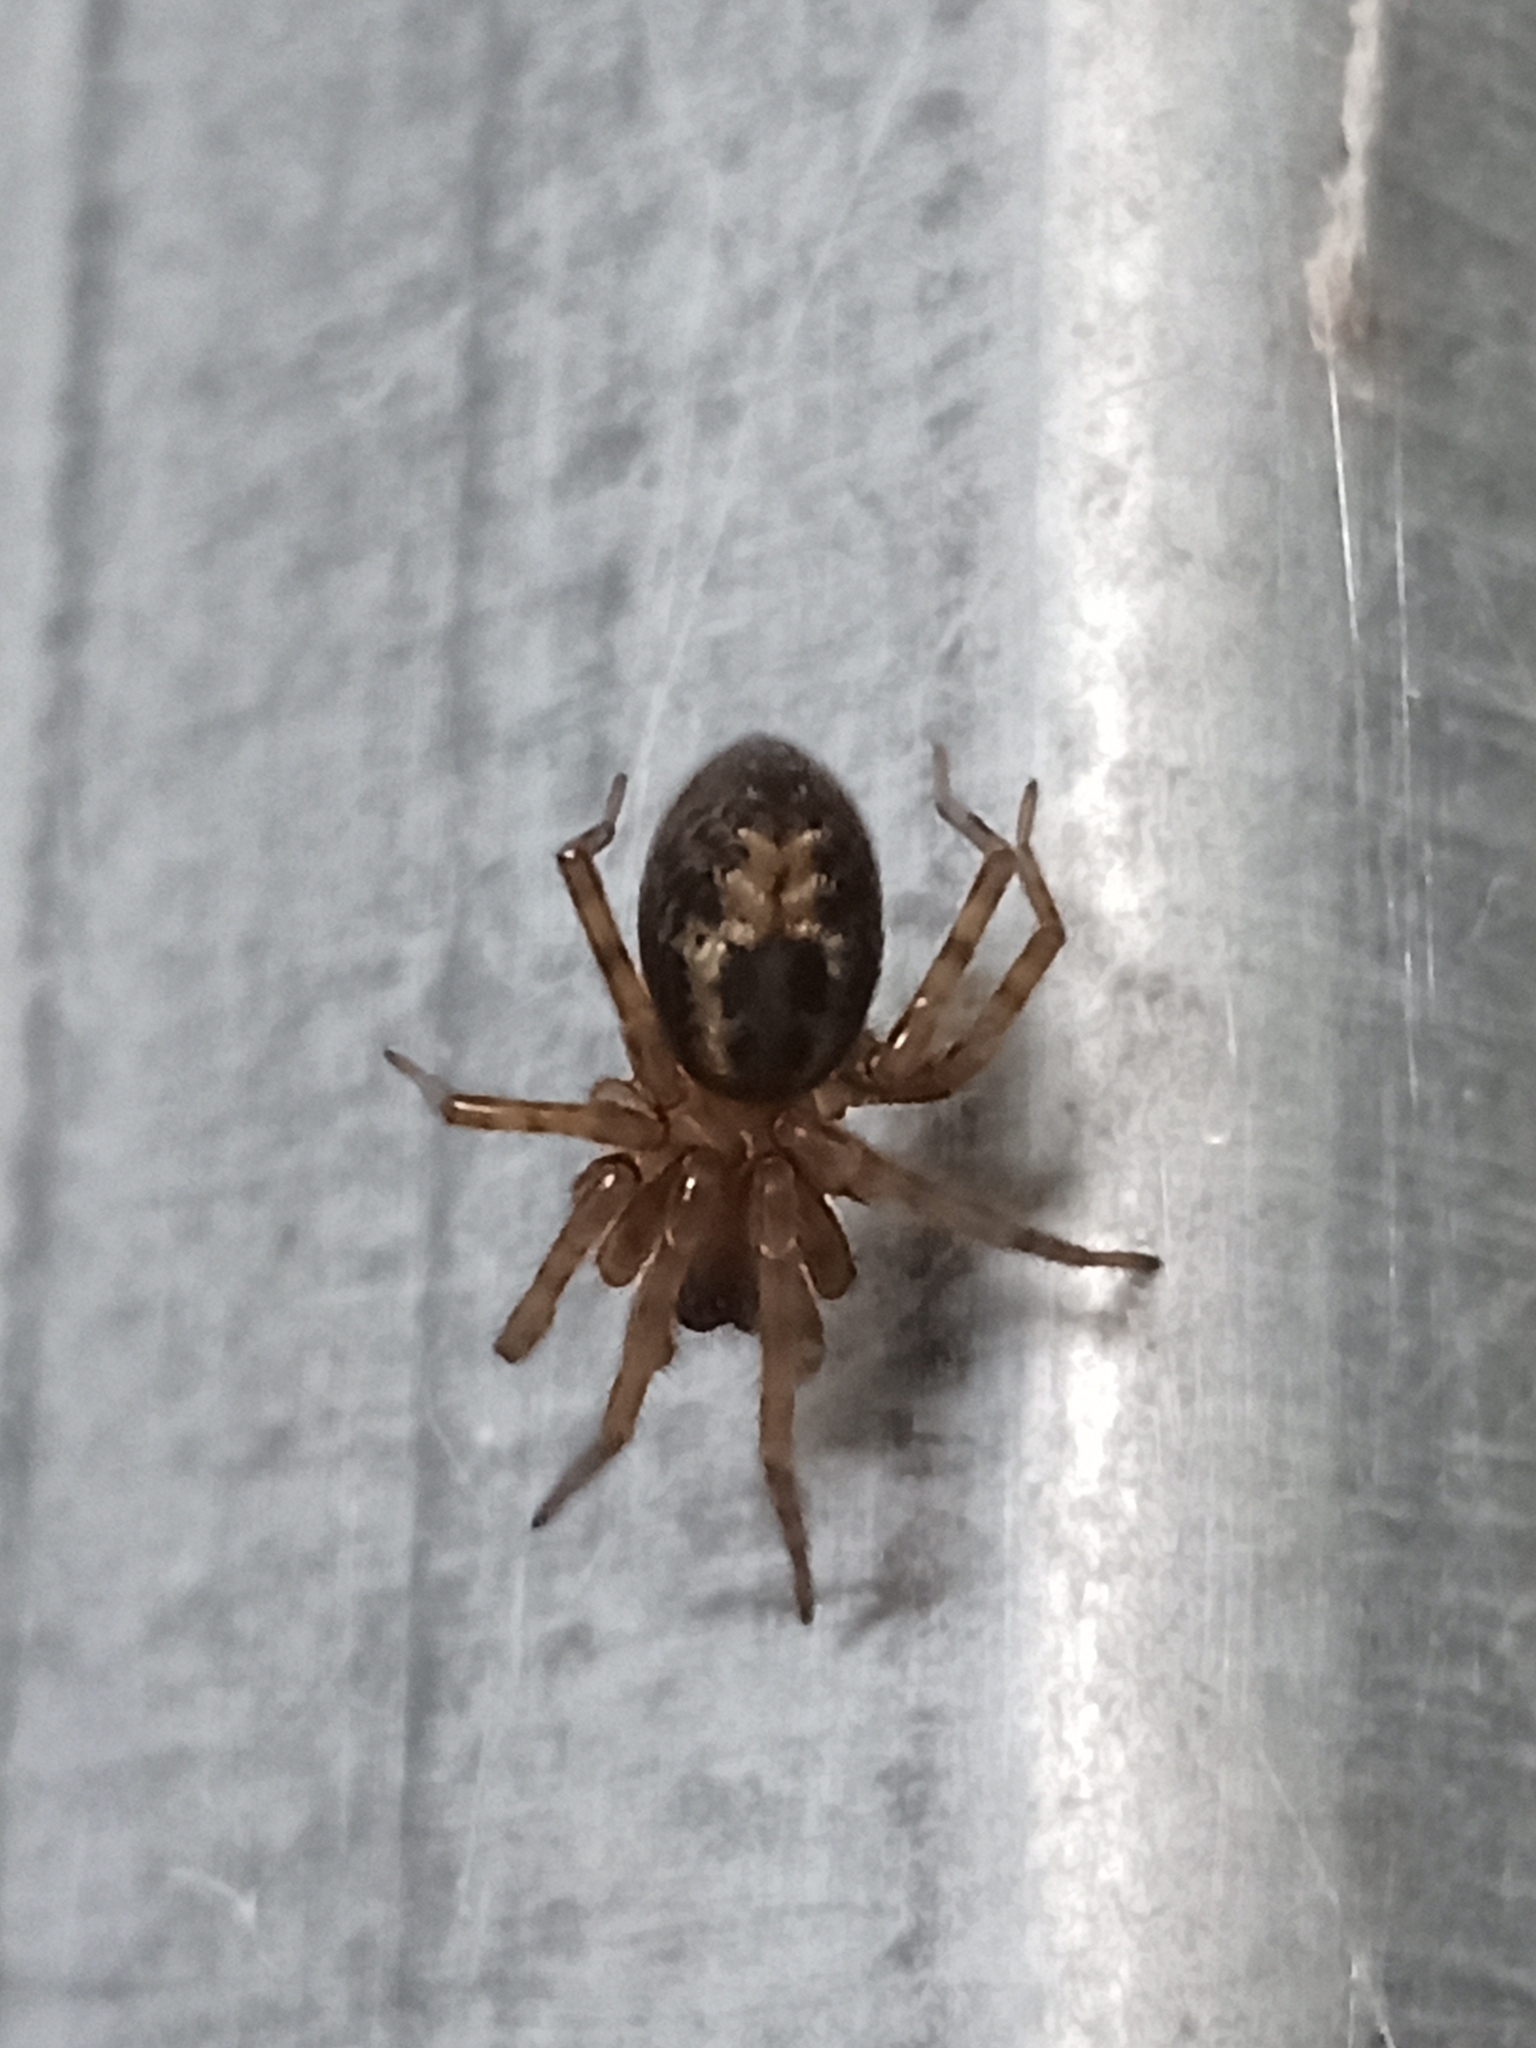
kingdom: Animalia
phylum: Arthropoda
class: Arachnida
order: Araneae
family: Amaurobiidae
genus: Amaurobius
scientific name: Amaurobius similis
